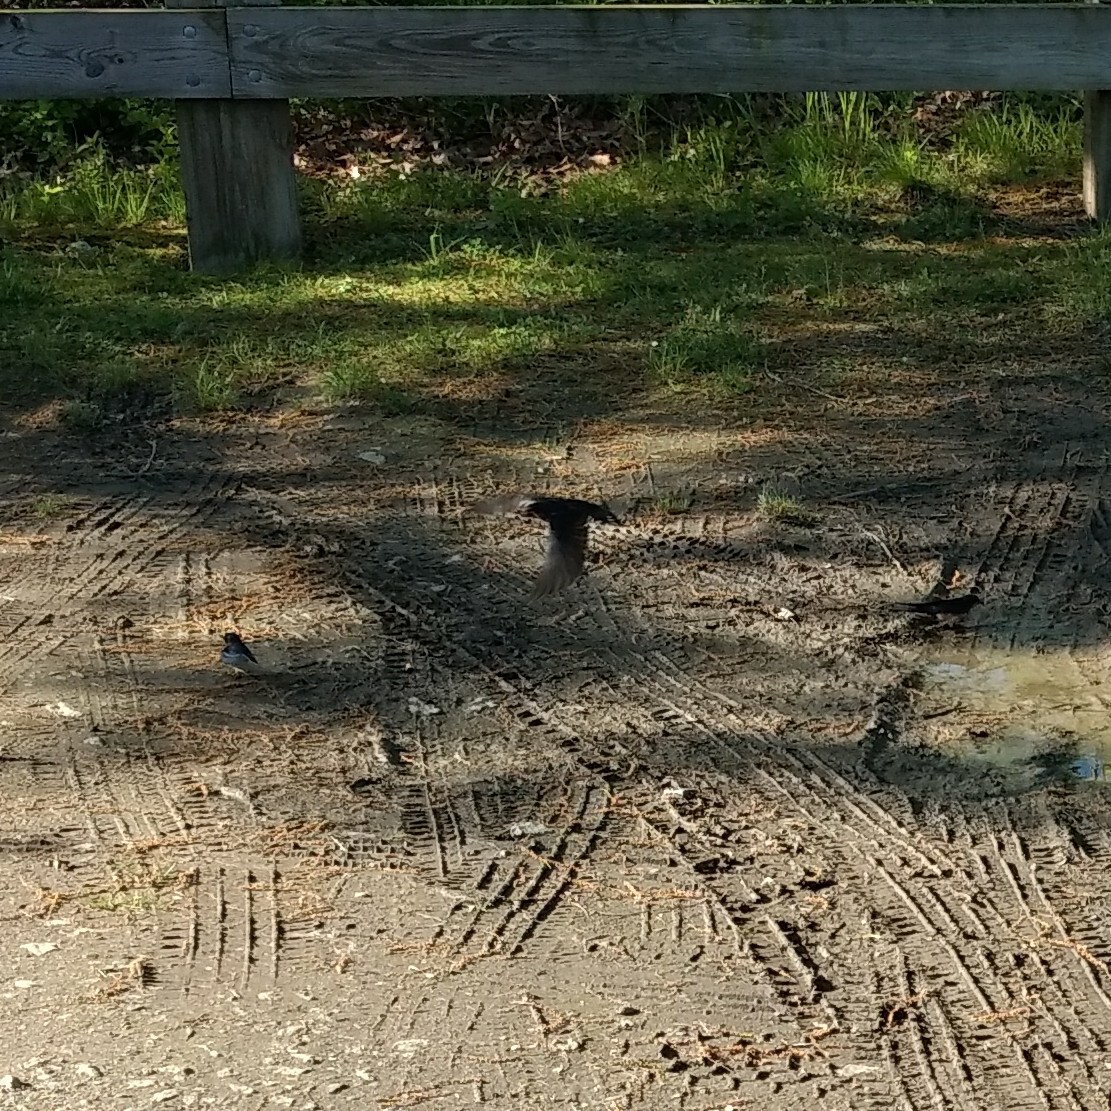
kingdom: Animalia
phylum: Chordata
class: Aves
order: Passeriformes
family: Hirundinidae
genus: Hirundo
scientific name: Hirundo rustica
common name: Barn swallow
